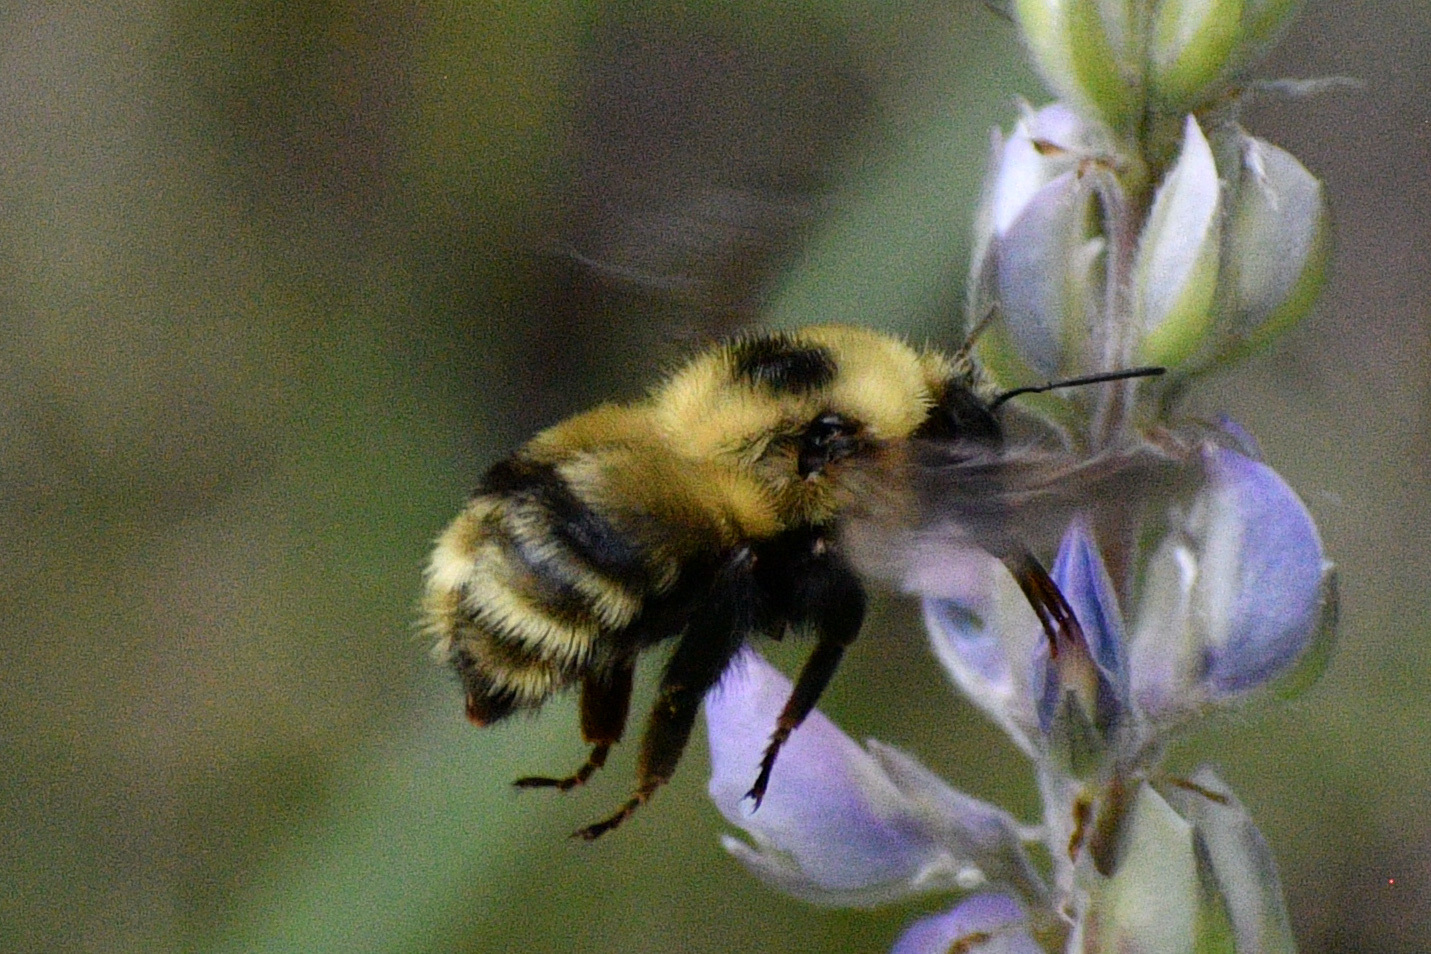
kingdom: Animalia
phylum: Arthropoda
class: Insecta
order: Hymenoptera
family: Apidae
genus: Bombus
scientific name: Bombus rufocinctus
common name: Red-belted bumble bee
